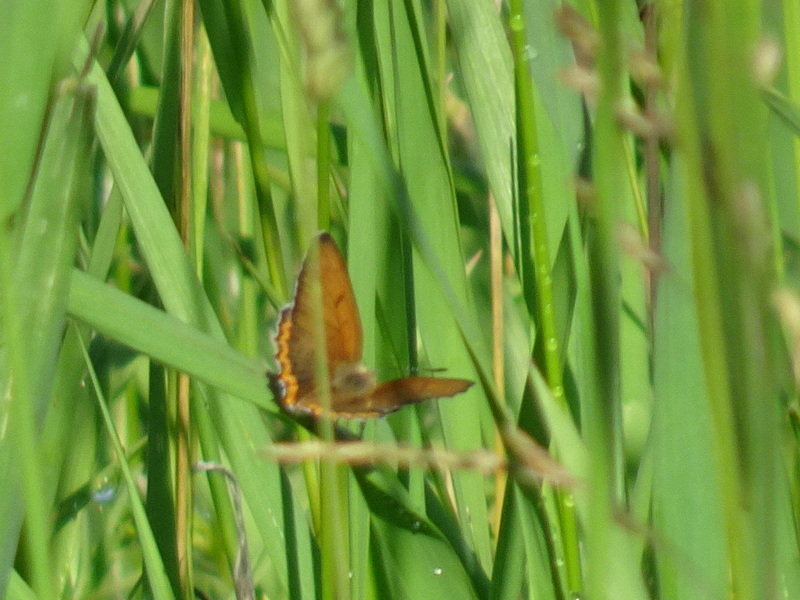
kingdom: Animalia
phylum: Arthropoda
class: Insecta
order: Lepidoptera
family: Lycaenidae
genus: Tharsalea
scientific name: Tharsalea hyllus
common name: Bronze copper
